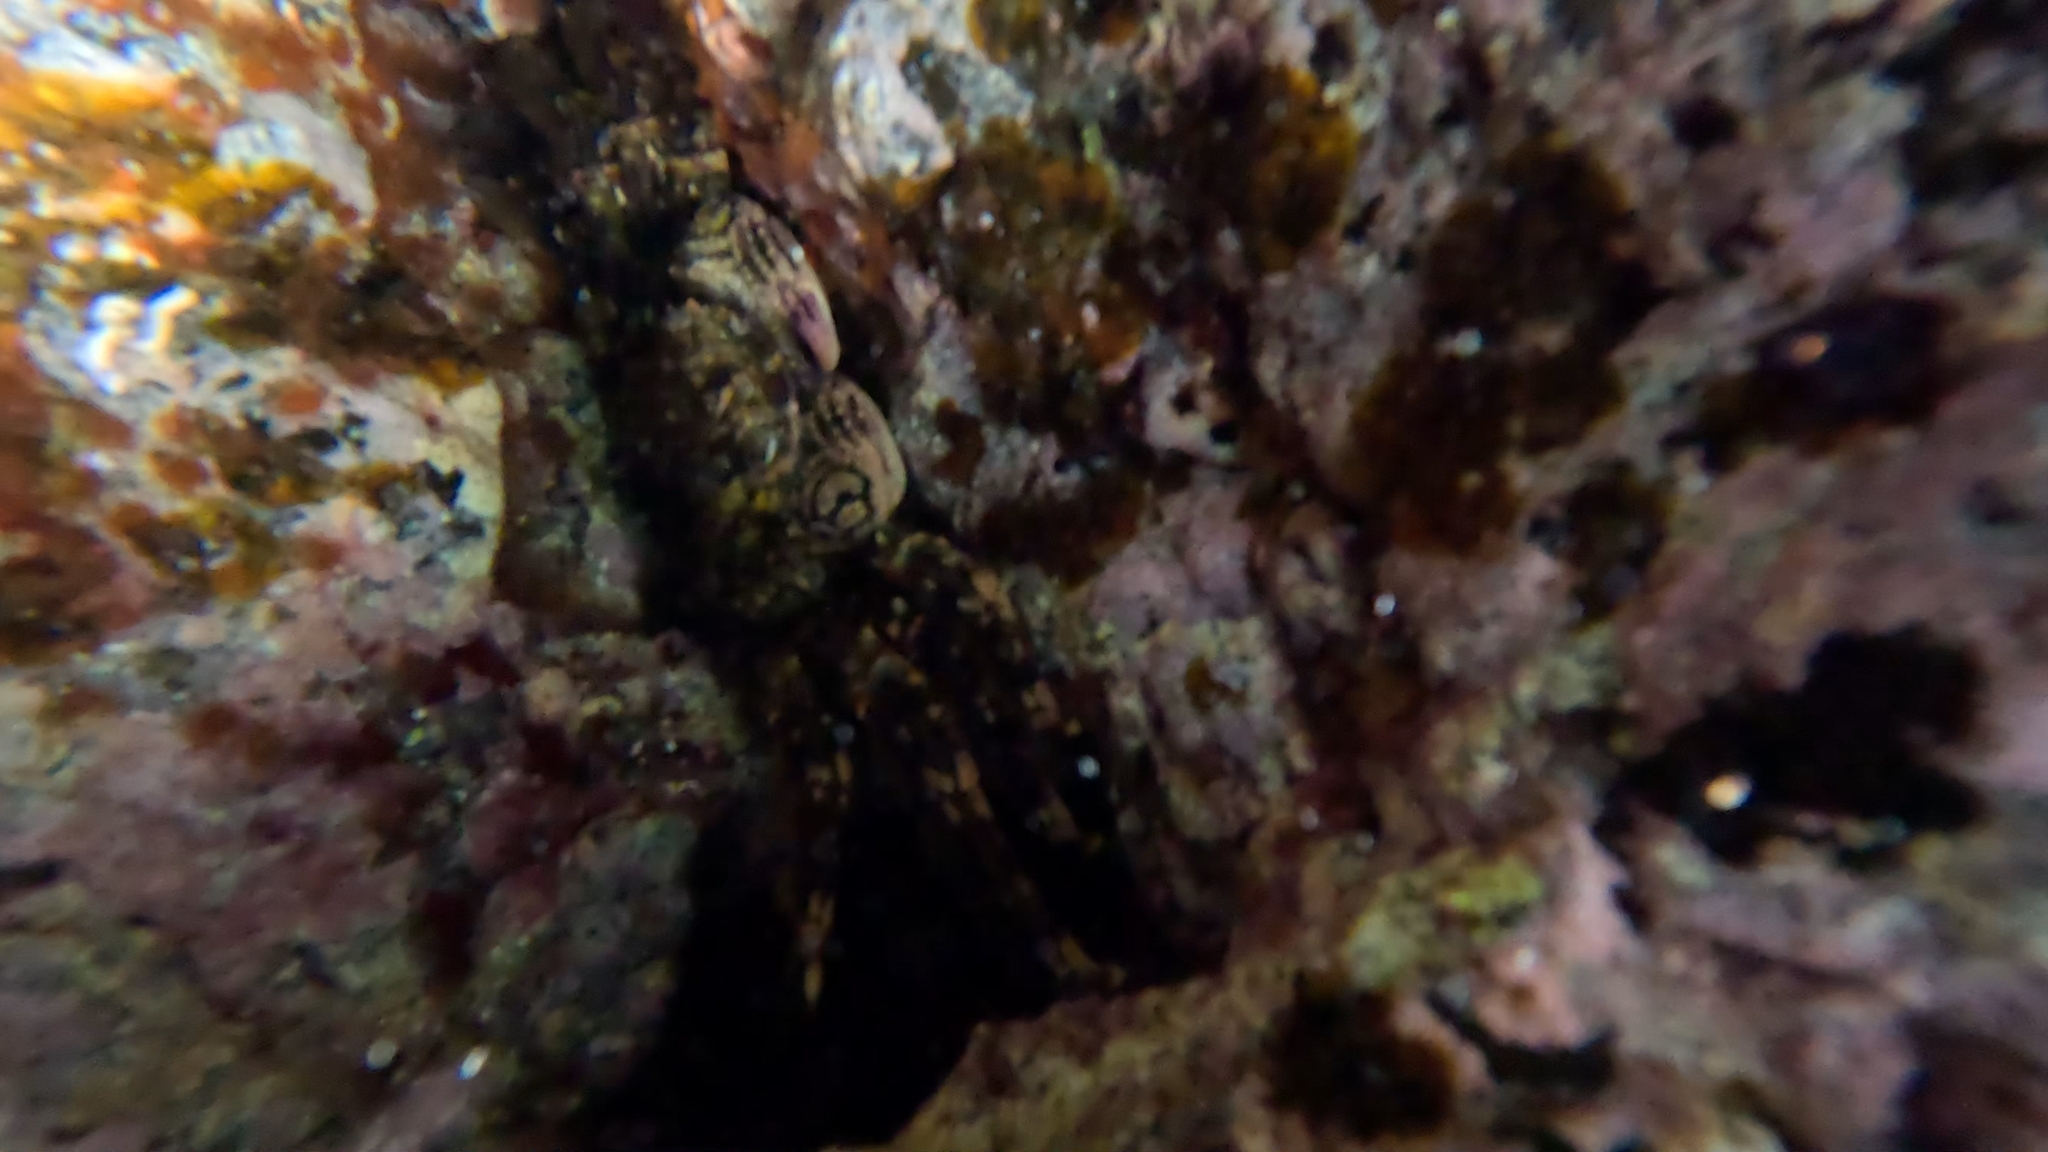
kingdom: Animalia
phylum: Arthropoda
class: Malacostraca
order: Decapoda
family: Plagusiidae
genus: Plagusia
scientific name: Plagusia depressa
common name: Flattened crab
